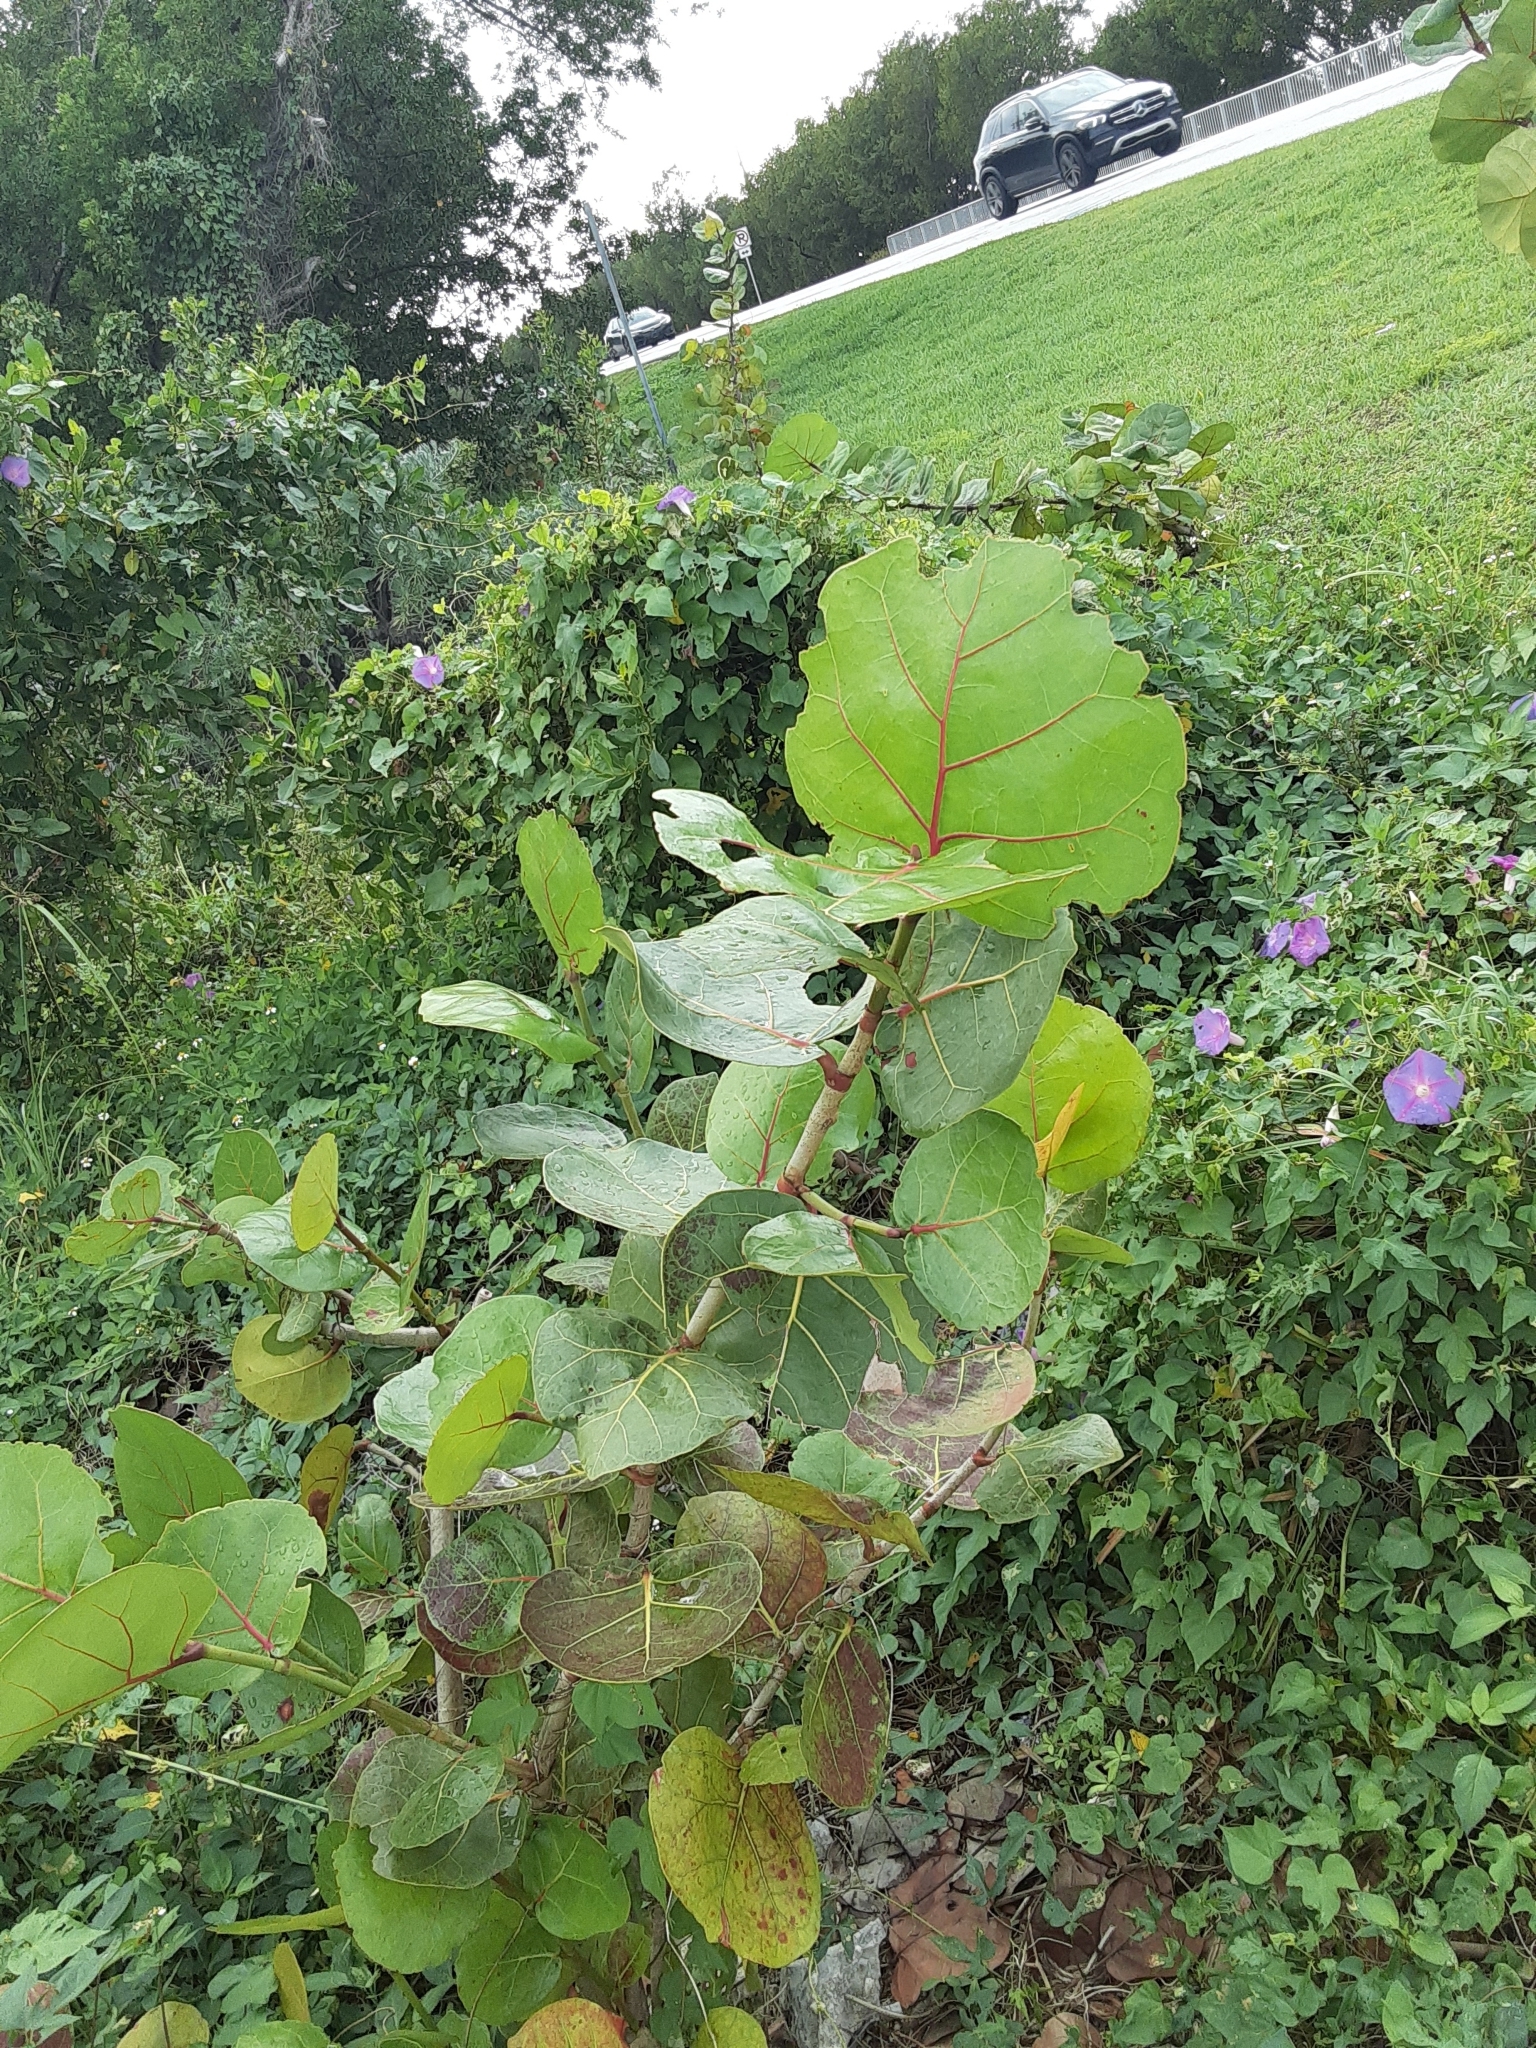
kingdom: Plantae
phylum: Tracheophyta
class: Magnoliopsida
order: Caryophyllales
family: Polygonaceae
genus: Coccoloba
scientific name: Coccoloba uvifera
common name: Seagrape
